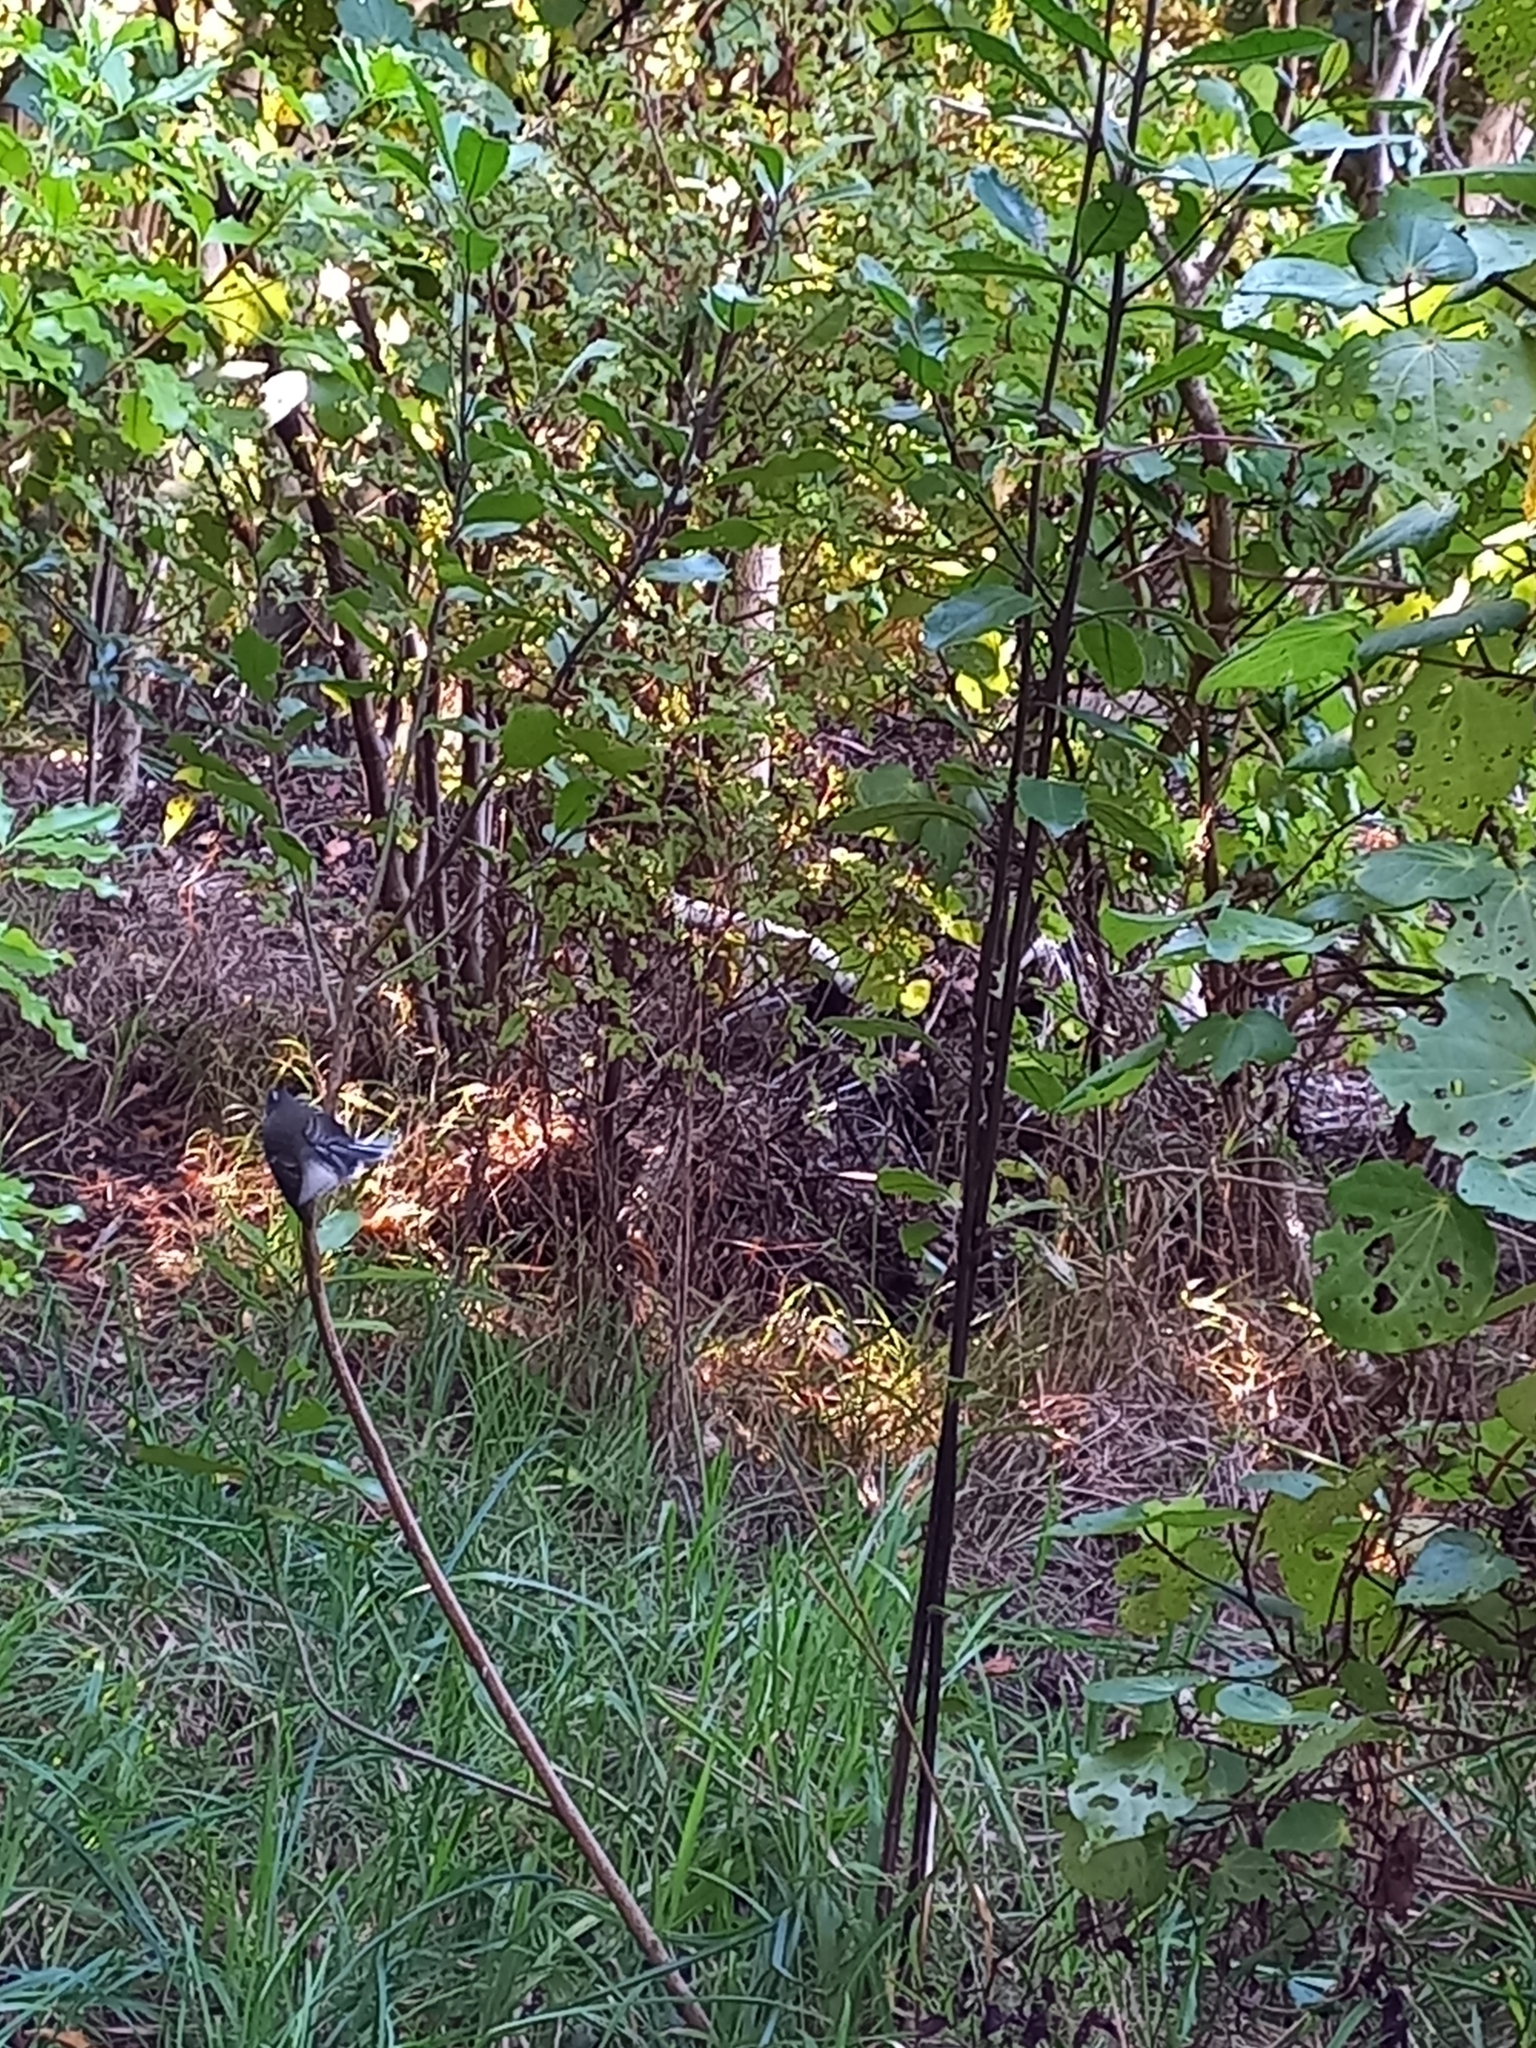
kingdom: Animalia
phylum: Chordata
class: Aves
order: Passeriformes
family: Rhipiduridae
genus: Rhipidura
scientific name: Rhipidura fuliginosa
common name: New zealand fantail
